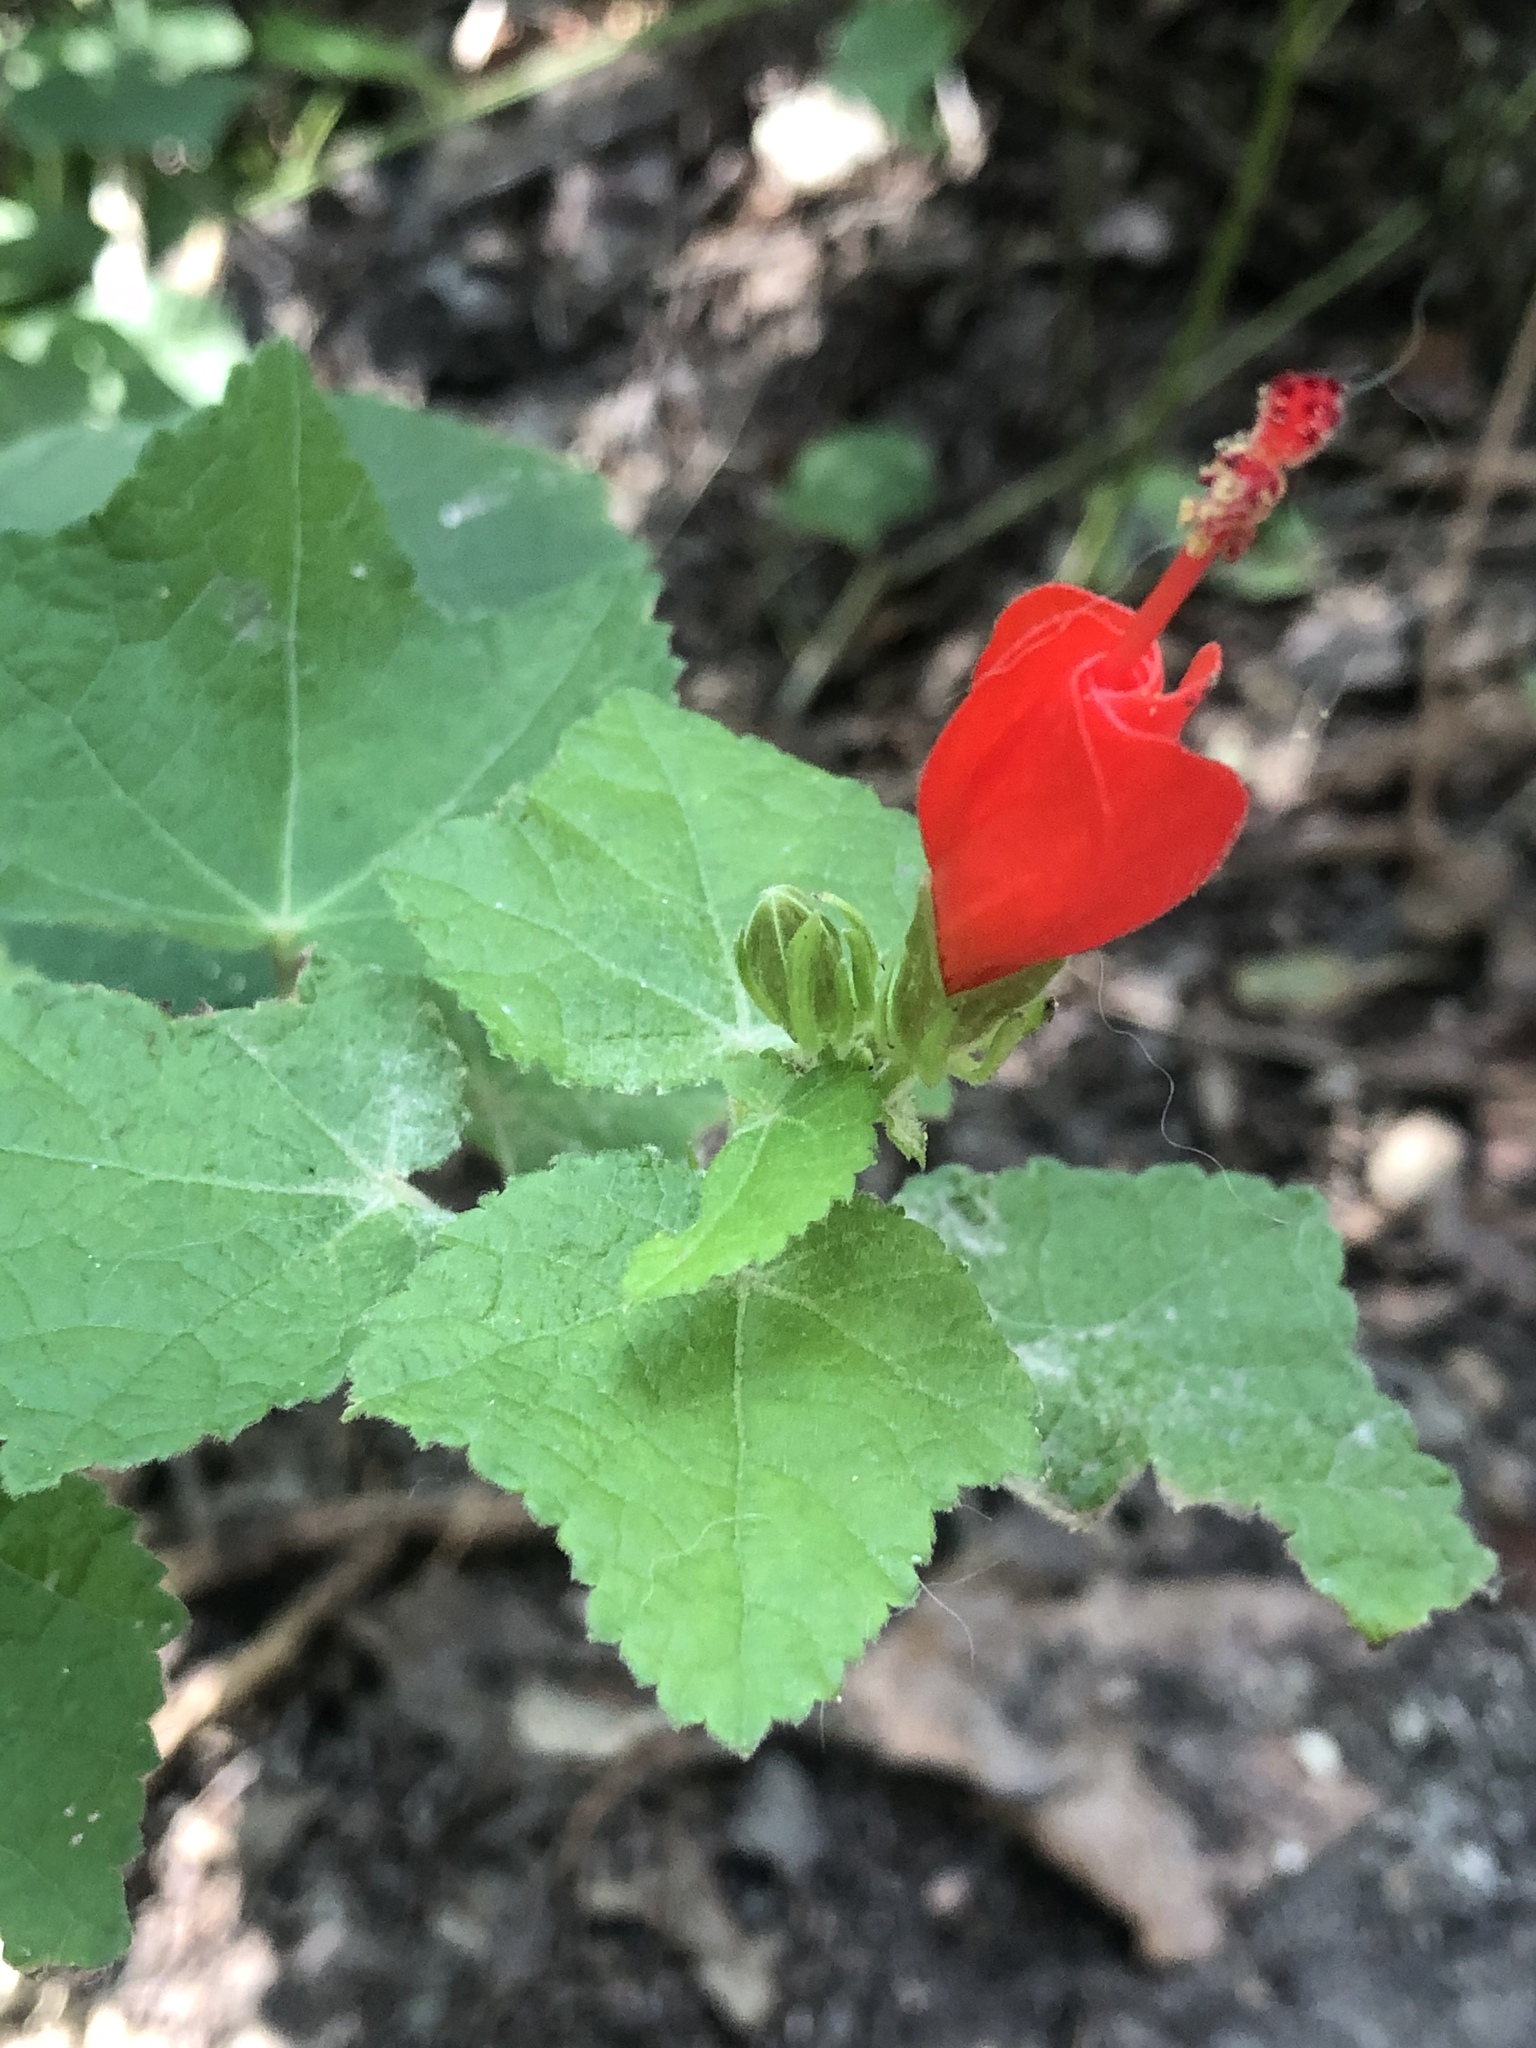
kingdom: Plantae
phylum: Tracheophyta
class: Magnoliopsida
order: Malvales
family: Malvaceae
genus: Malvaviscus
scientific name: Malvaviscus arboreus
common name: Wax mallow
